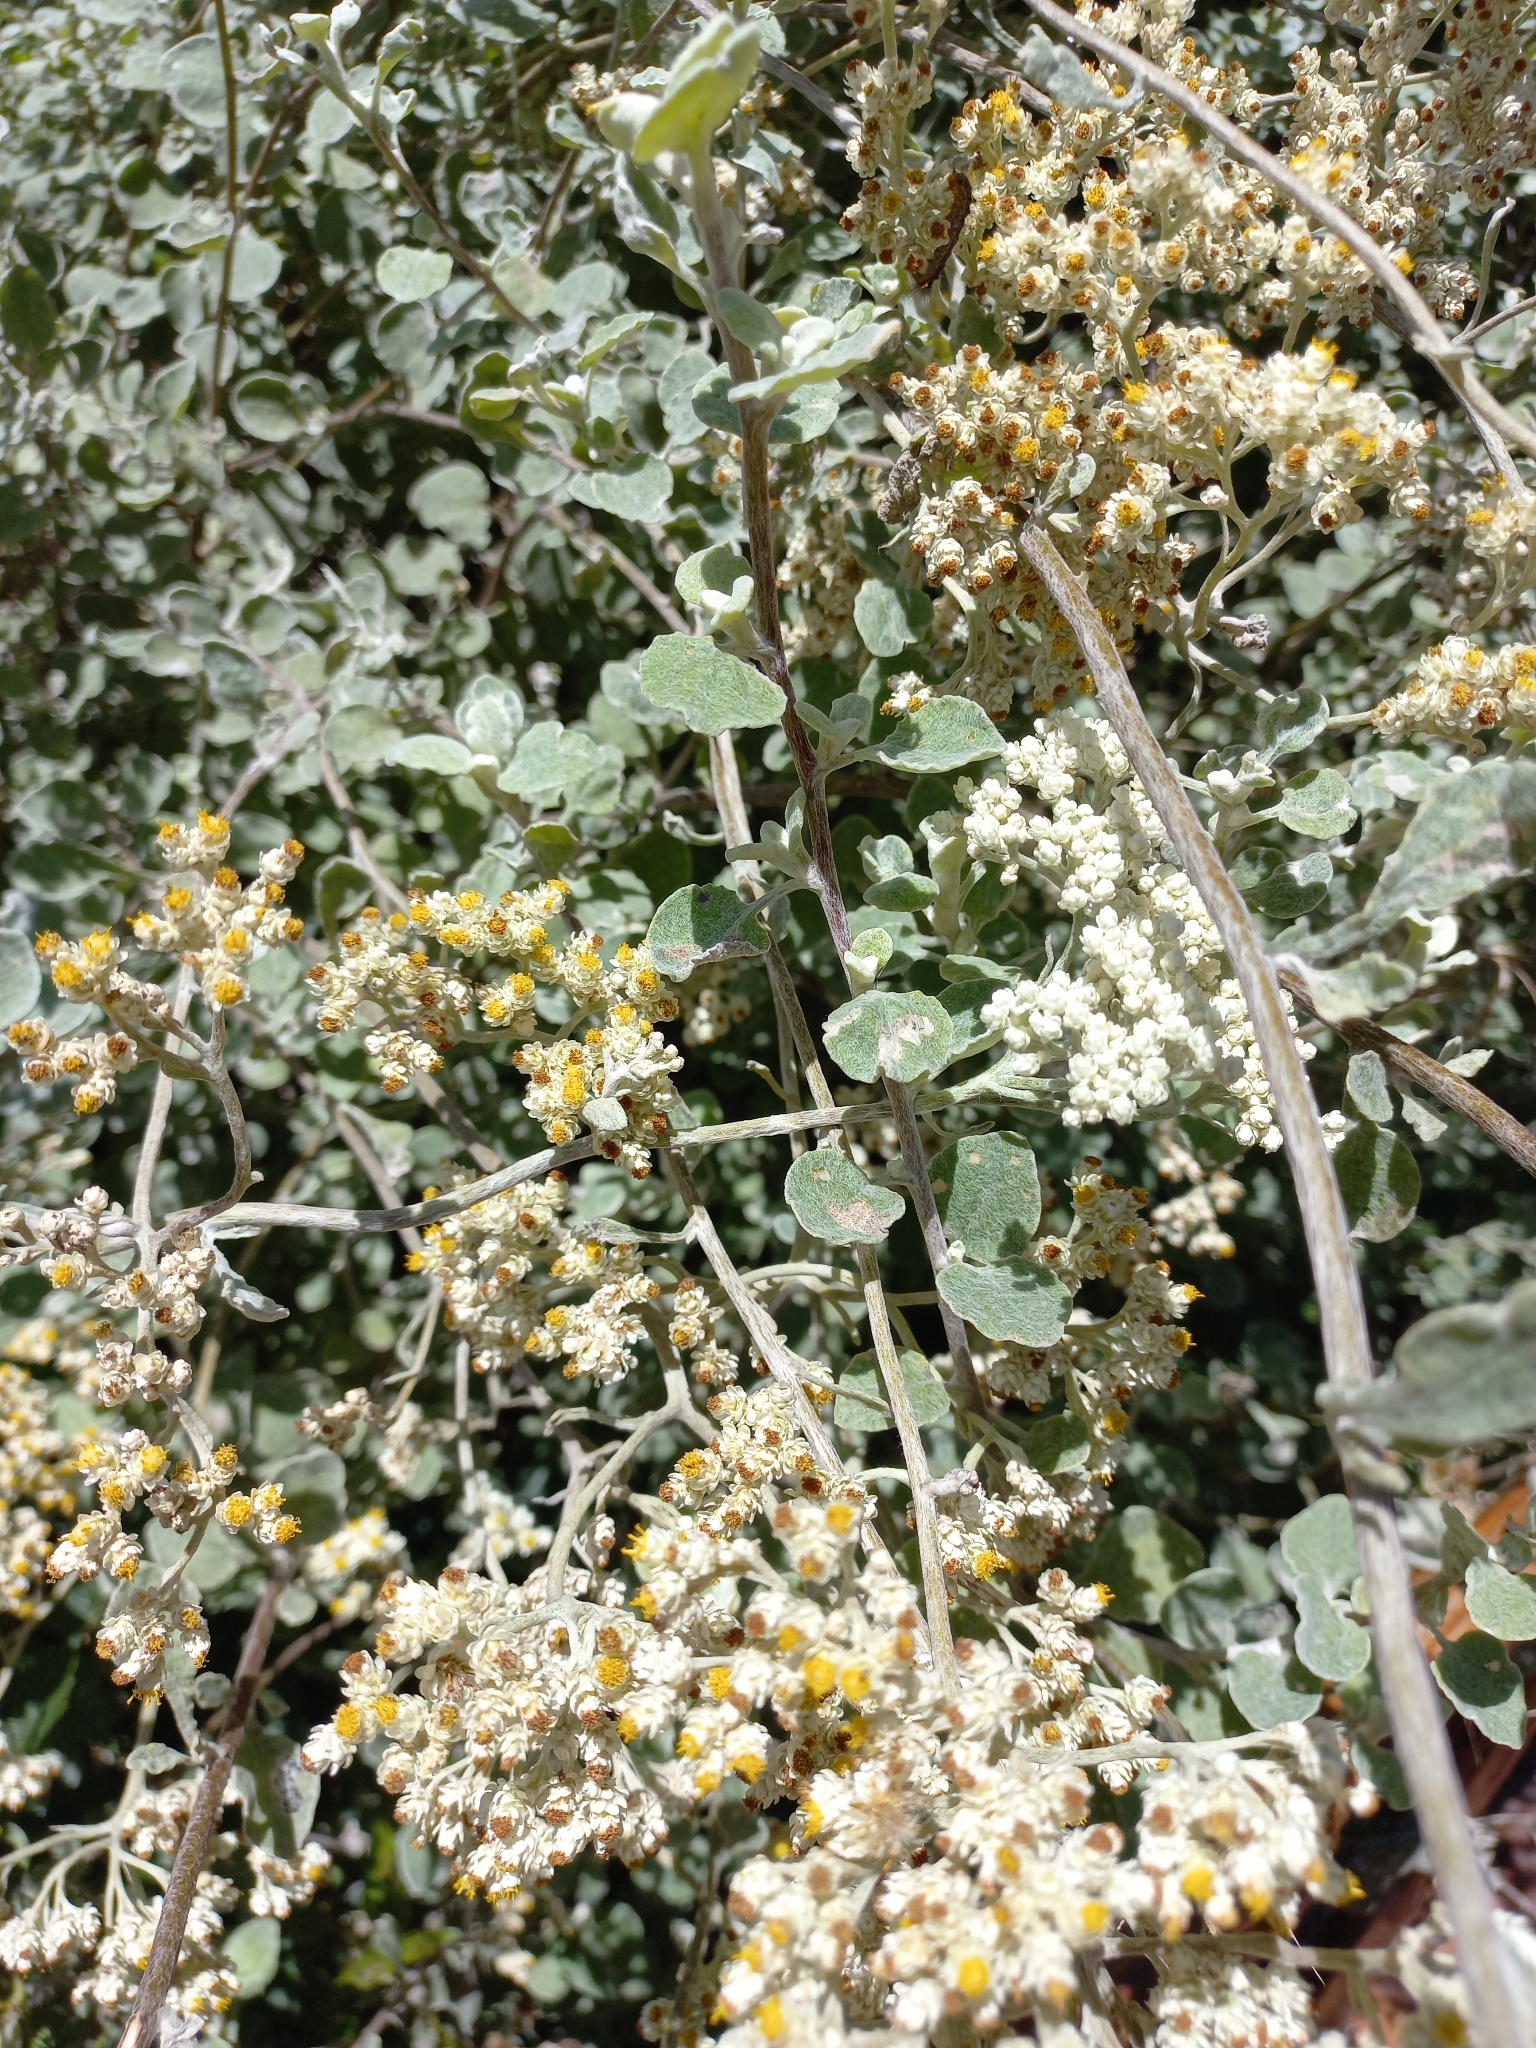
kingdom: Plantae
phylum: Tracheophyta
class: Magnoliopsida
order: Asterales
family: Asteraceae
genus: Helichrysum
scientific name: Helichrysum petiolare
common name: Licorice-plant
